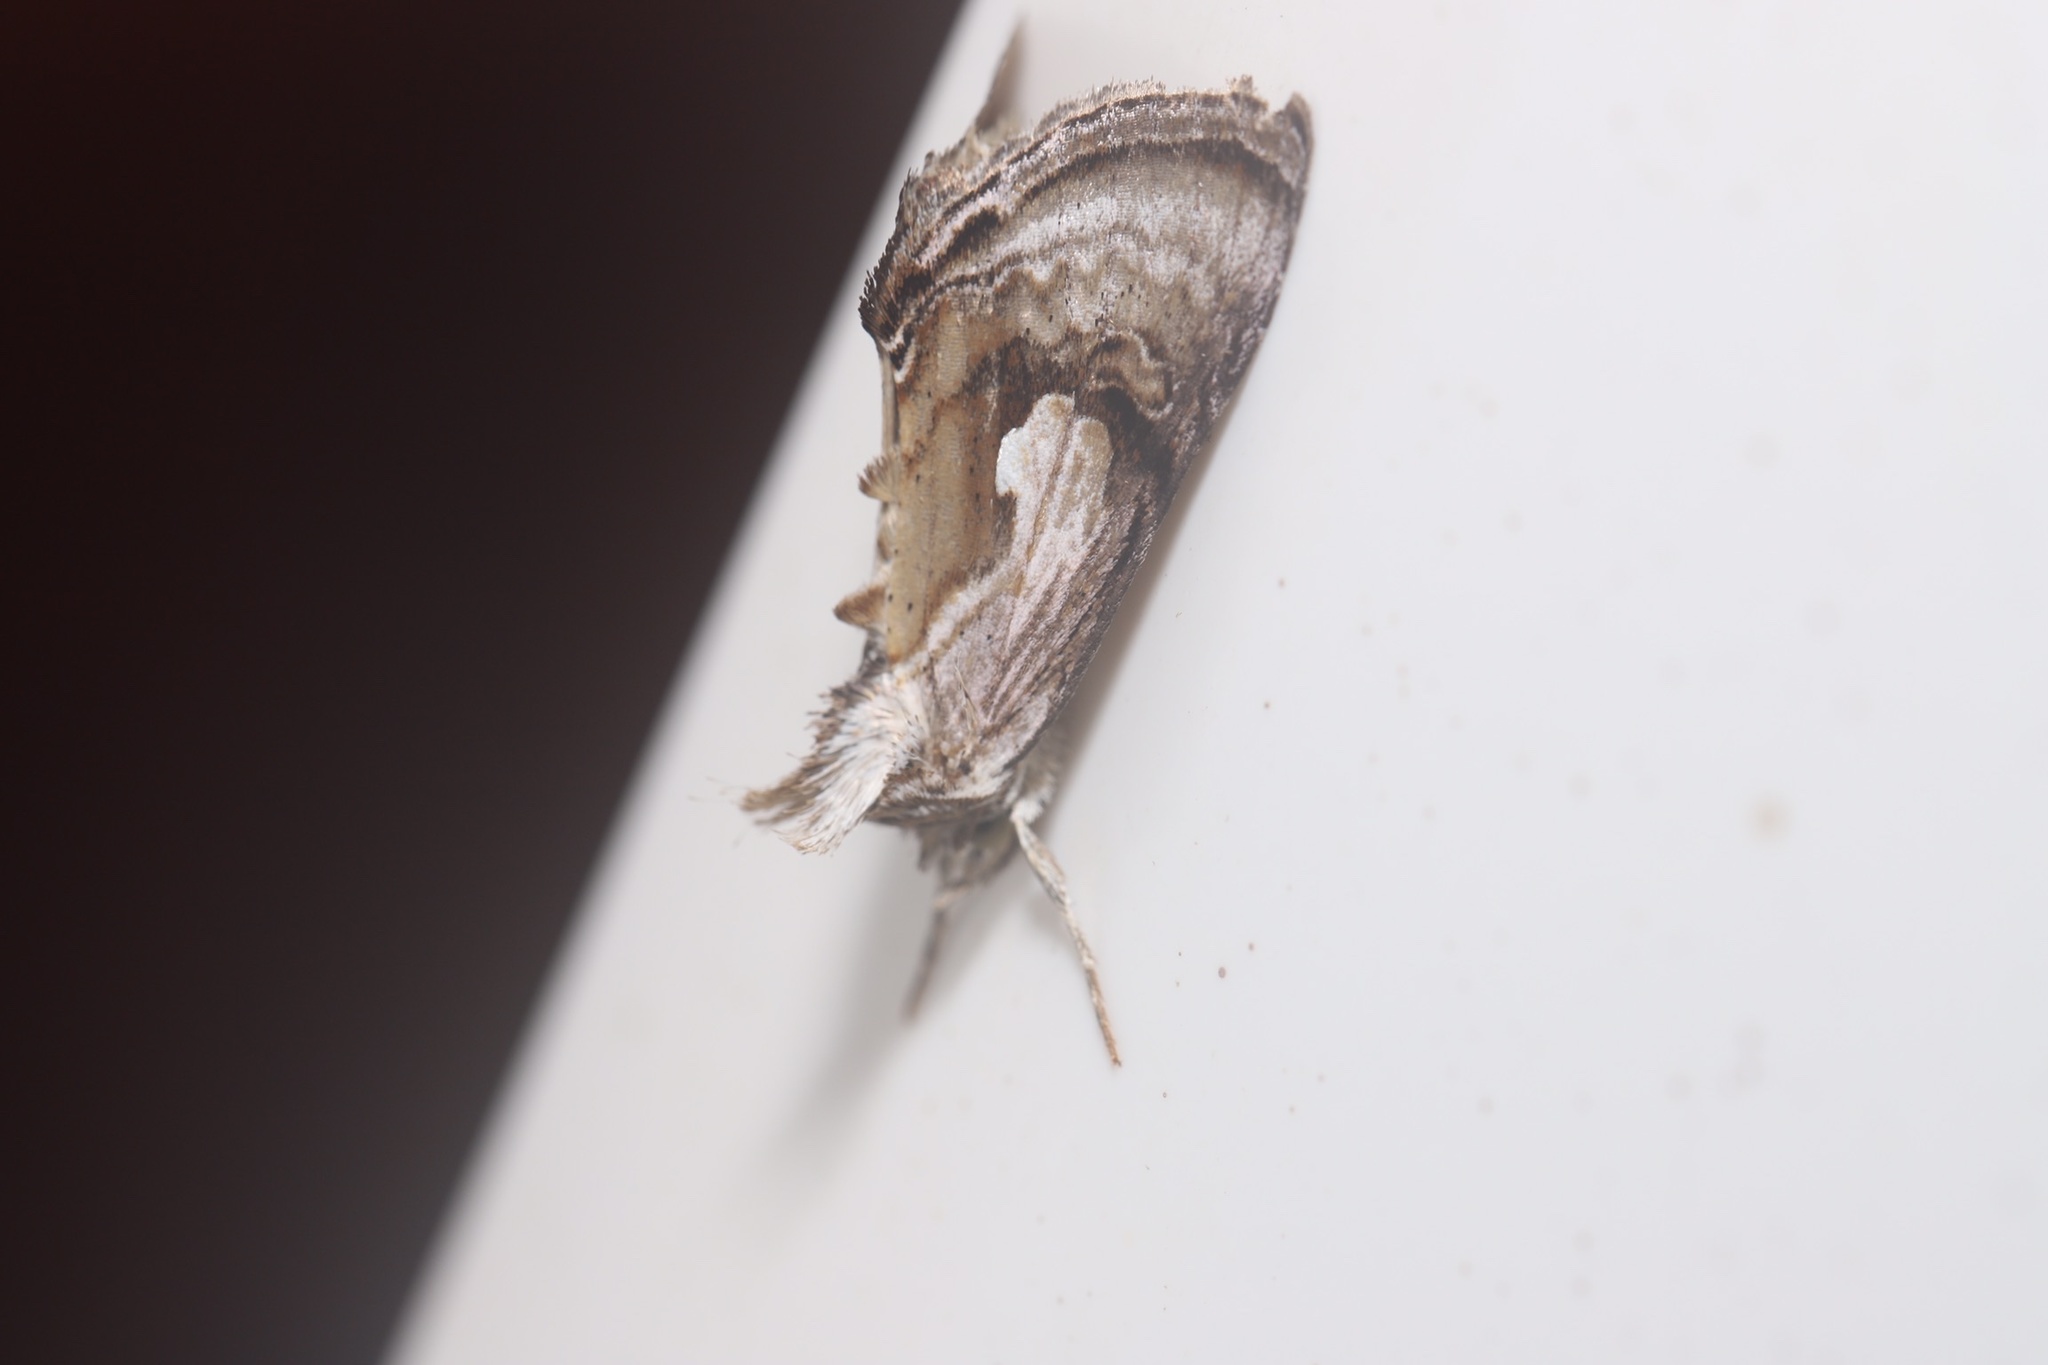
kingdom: Animalia
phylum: Arthropoda
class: Insecta
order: Lepidoptera
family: Noctuidae
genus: Chrysanympha
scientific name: Chrysanympha formosa
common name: Formosa looper moth
